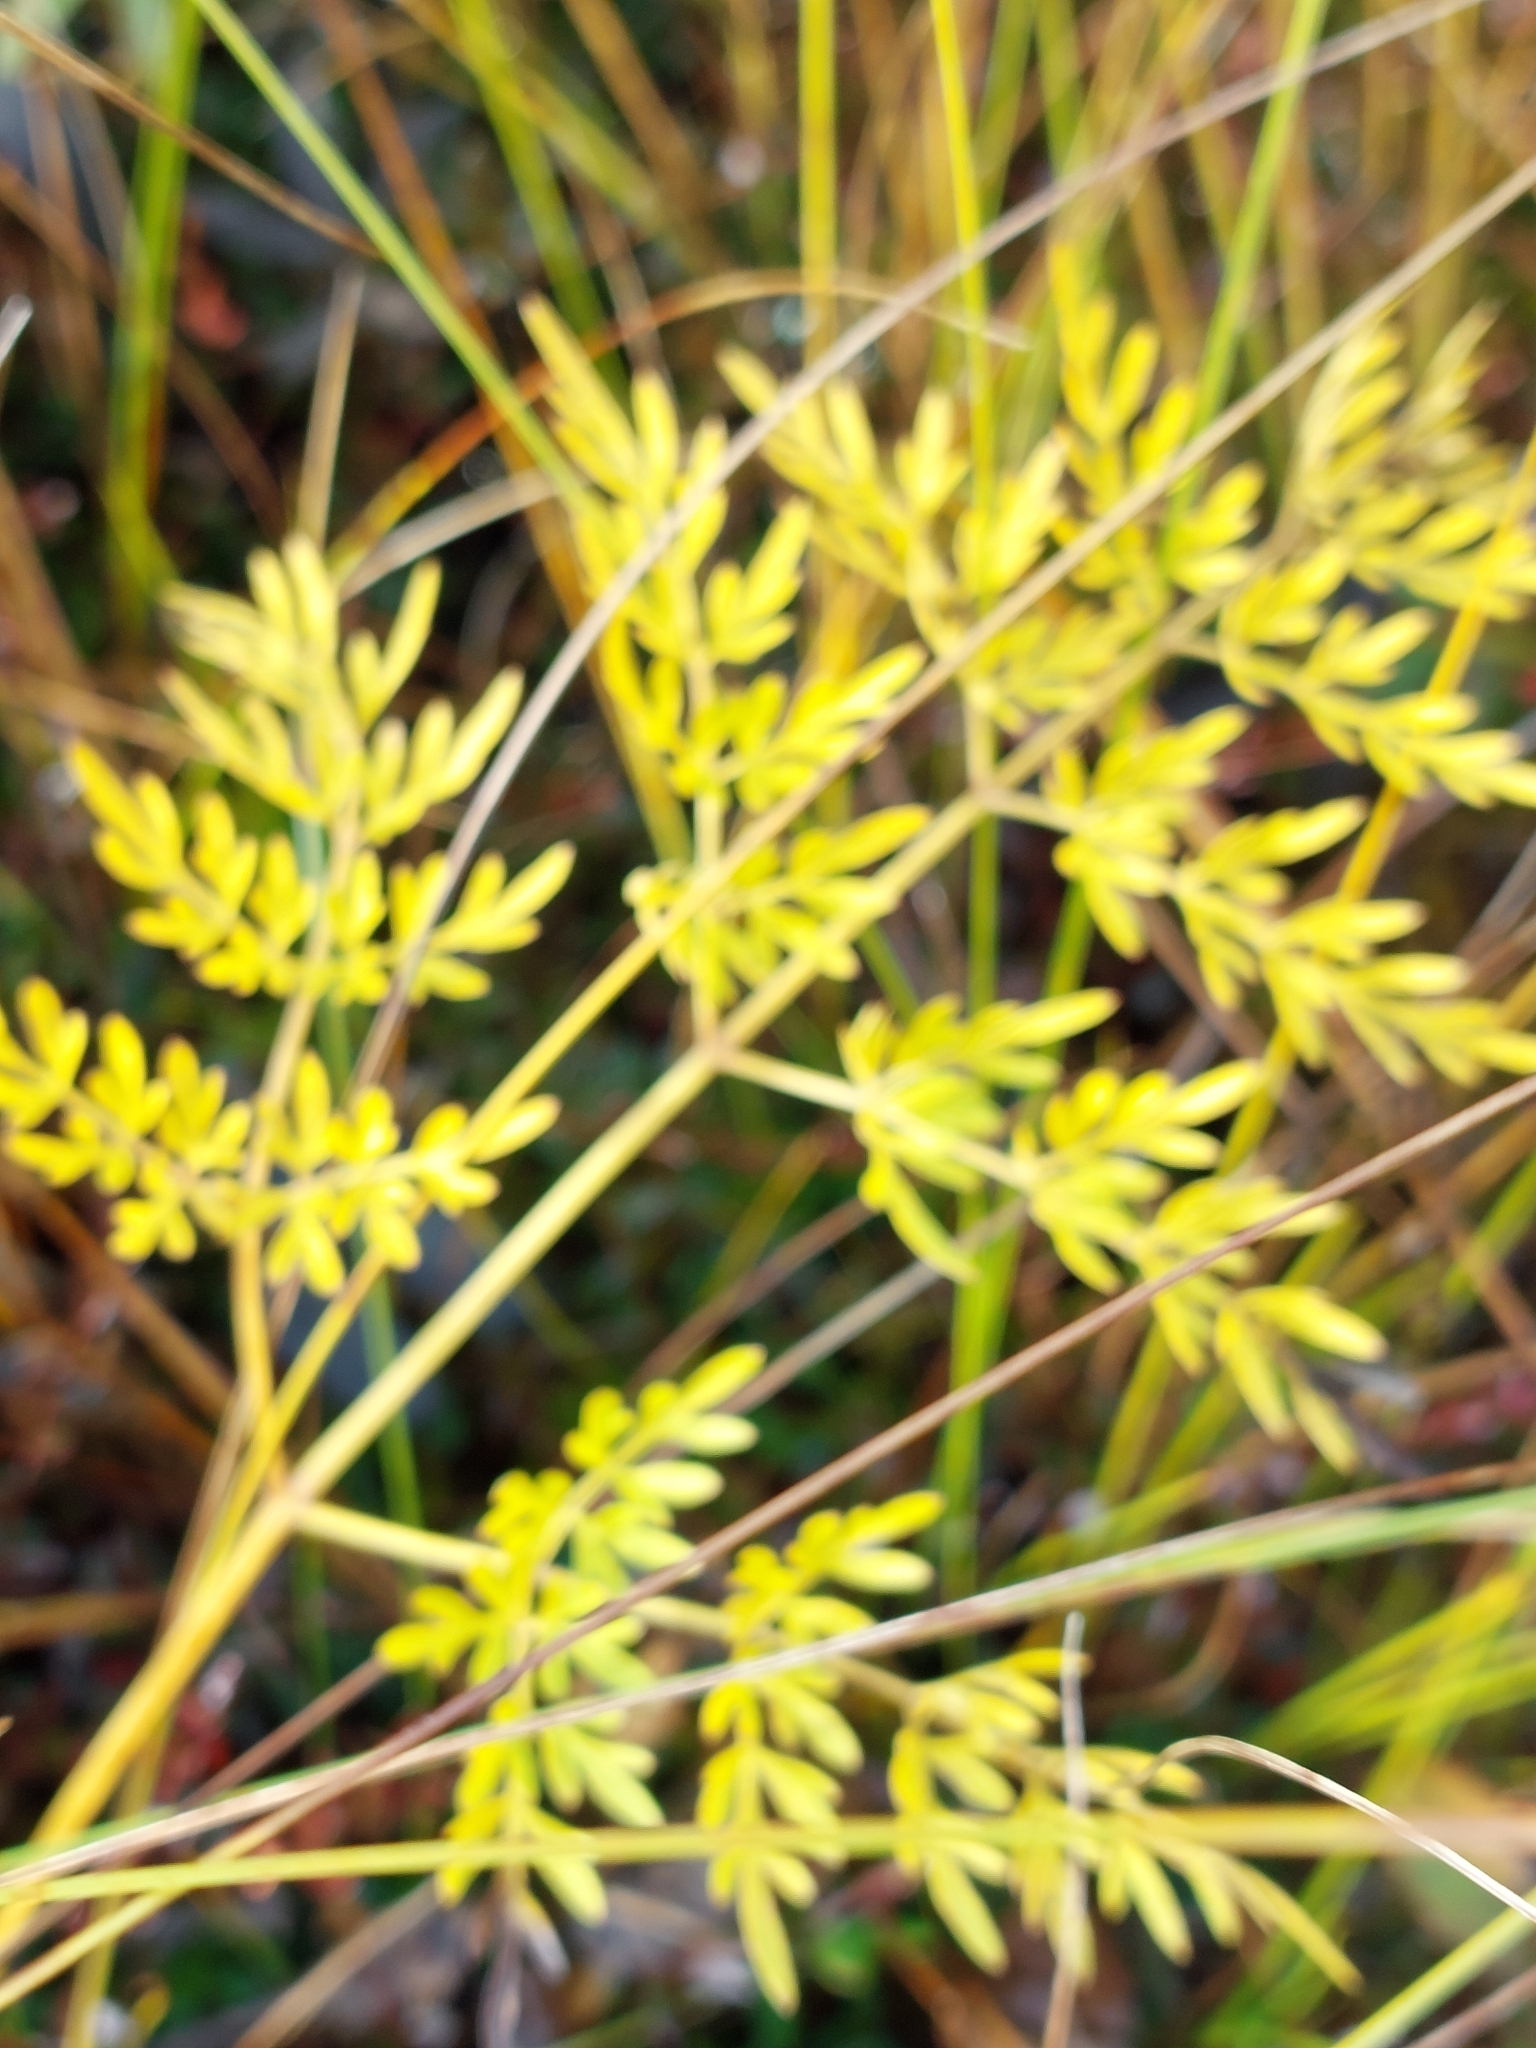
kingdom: Plantae
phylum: Tracheophyta
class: Magnoliopsida
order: Apiales
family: Apiaceae
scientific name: Apiaceae
